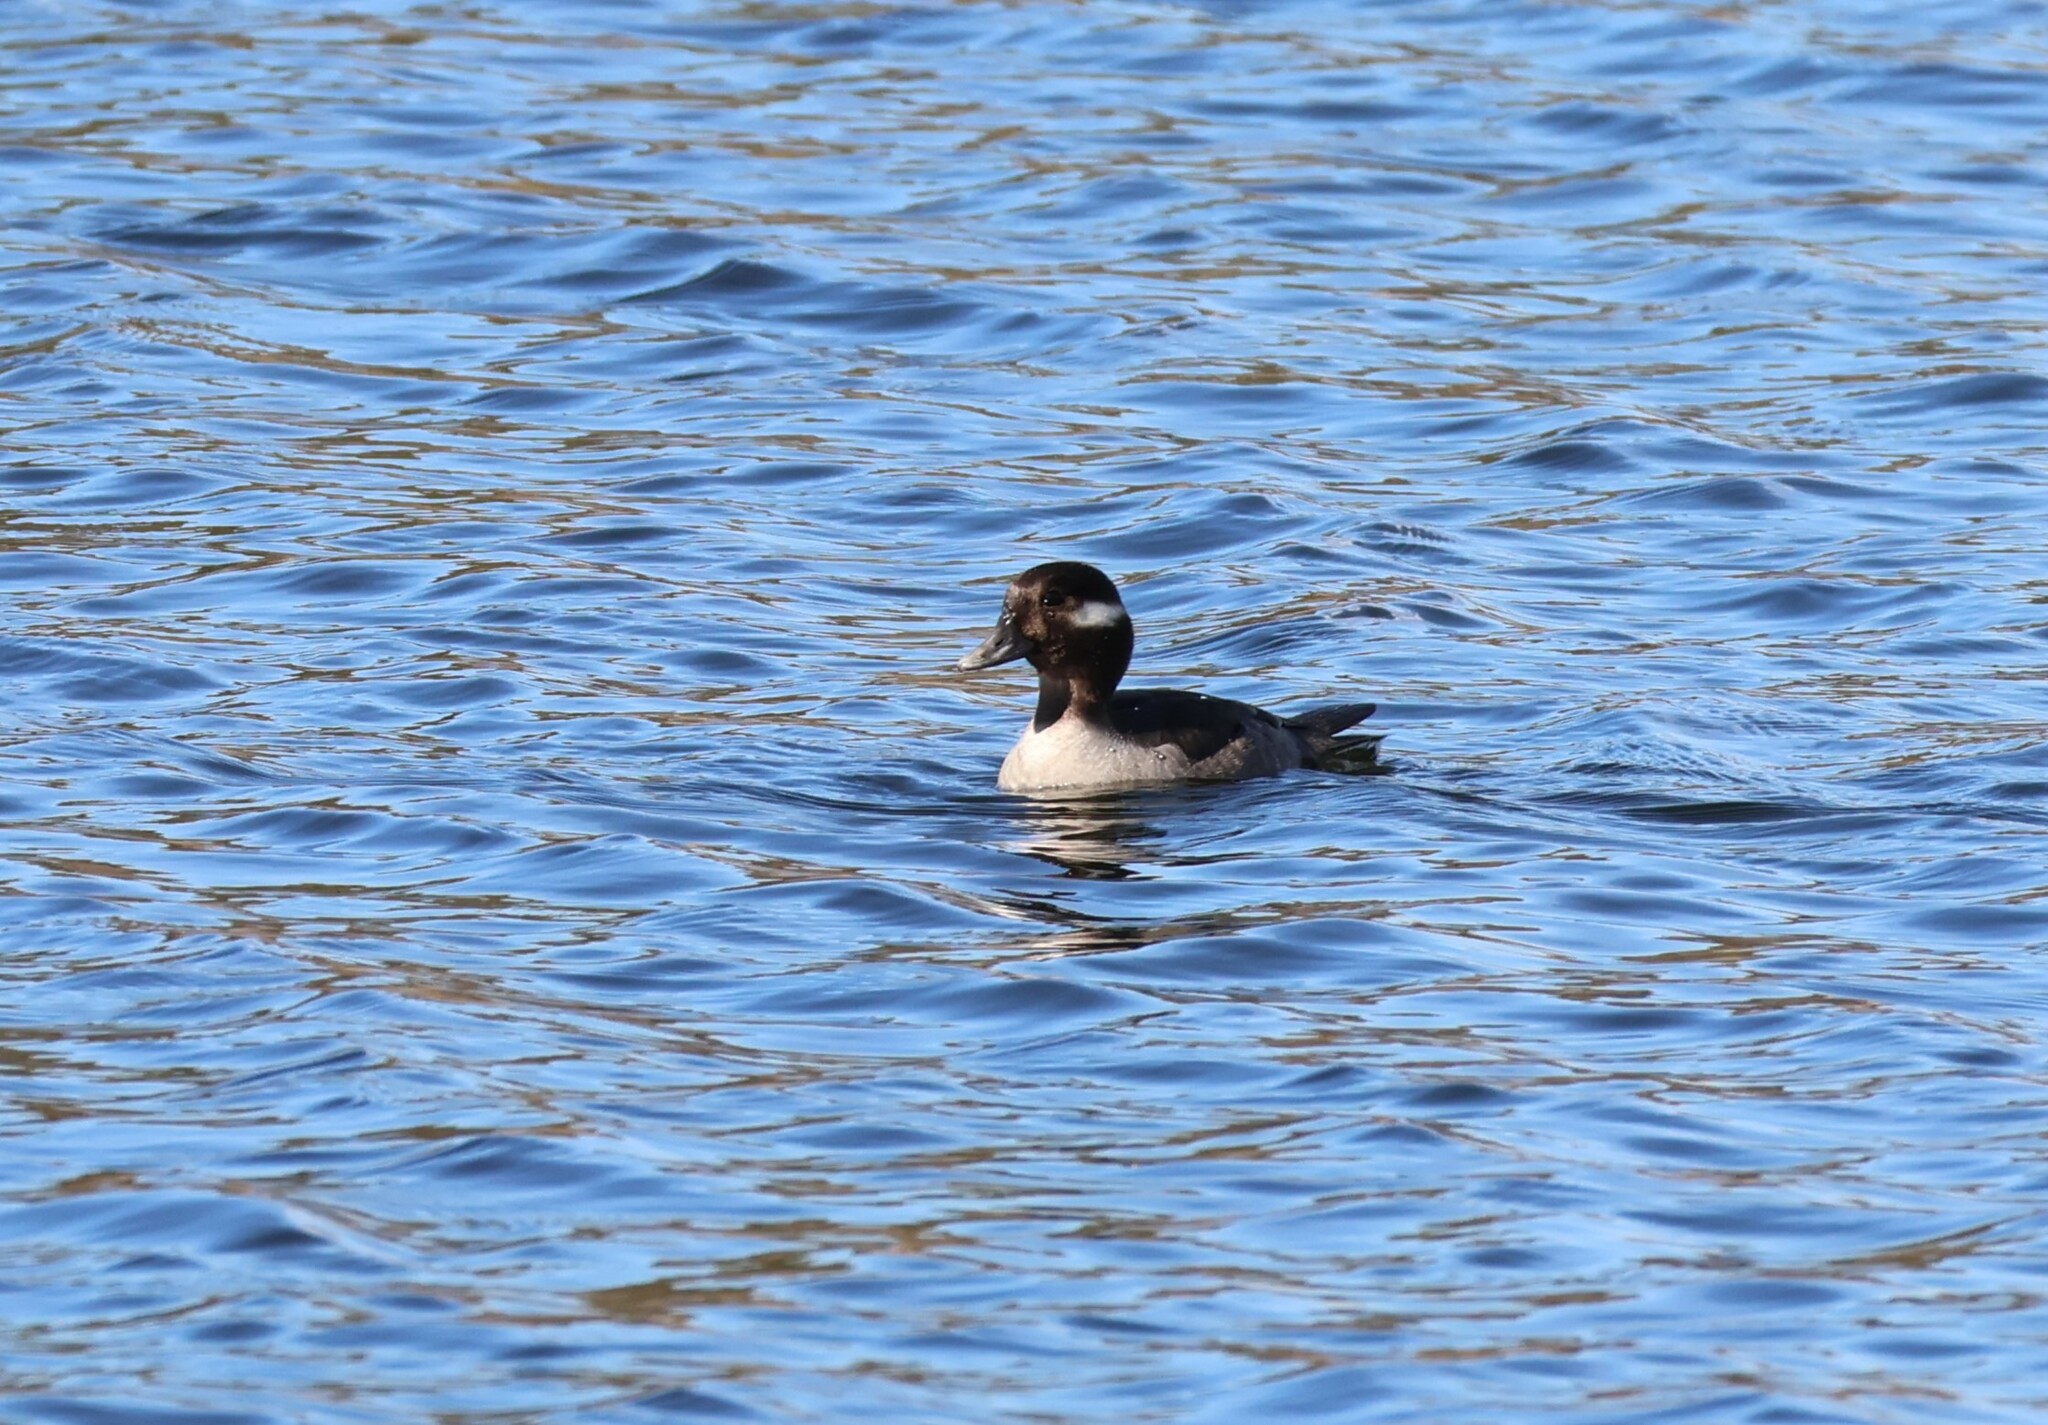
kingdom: Animalia
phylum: Chordata
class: Aves
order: Anseriformes
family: Anatidae
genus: Bucephala
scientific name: Bucephala albeola
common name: Bufflehead
